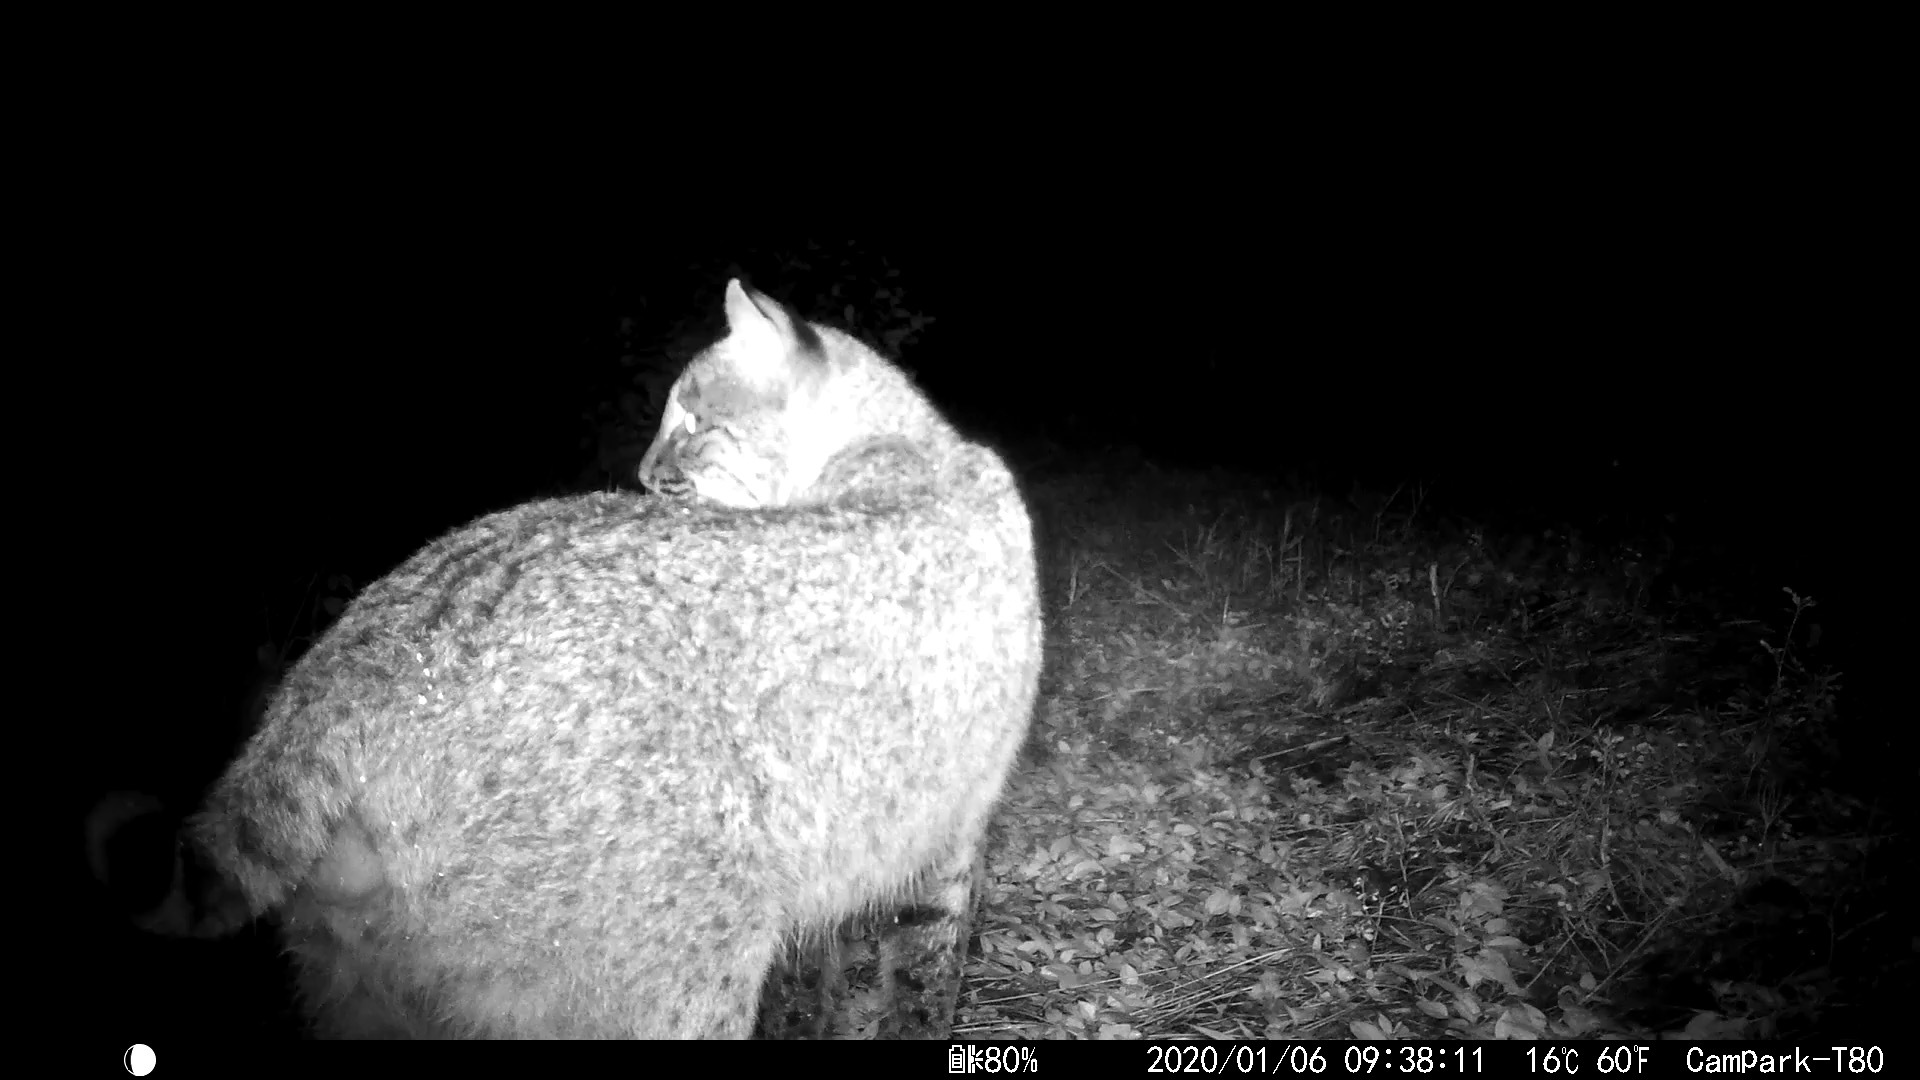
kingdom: Animalia
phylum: Chordata
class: Mammalia
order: Carnivora
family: Felidae
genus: Lynx
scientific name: Lynx rufus
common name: Bobcat
